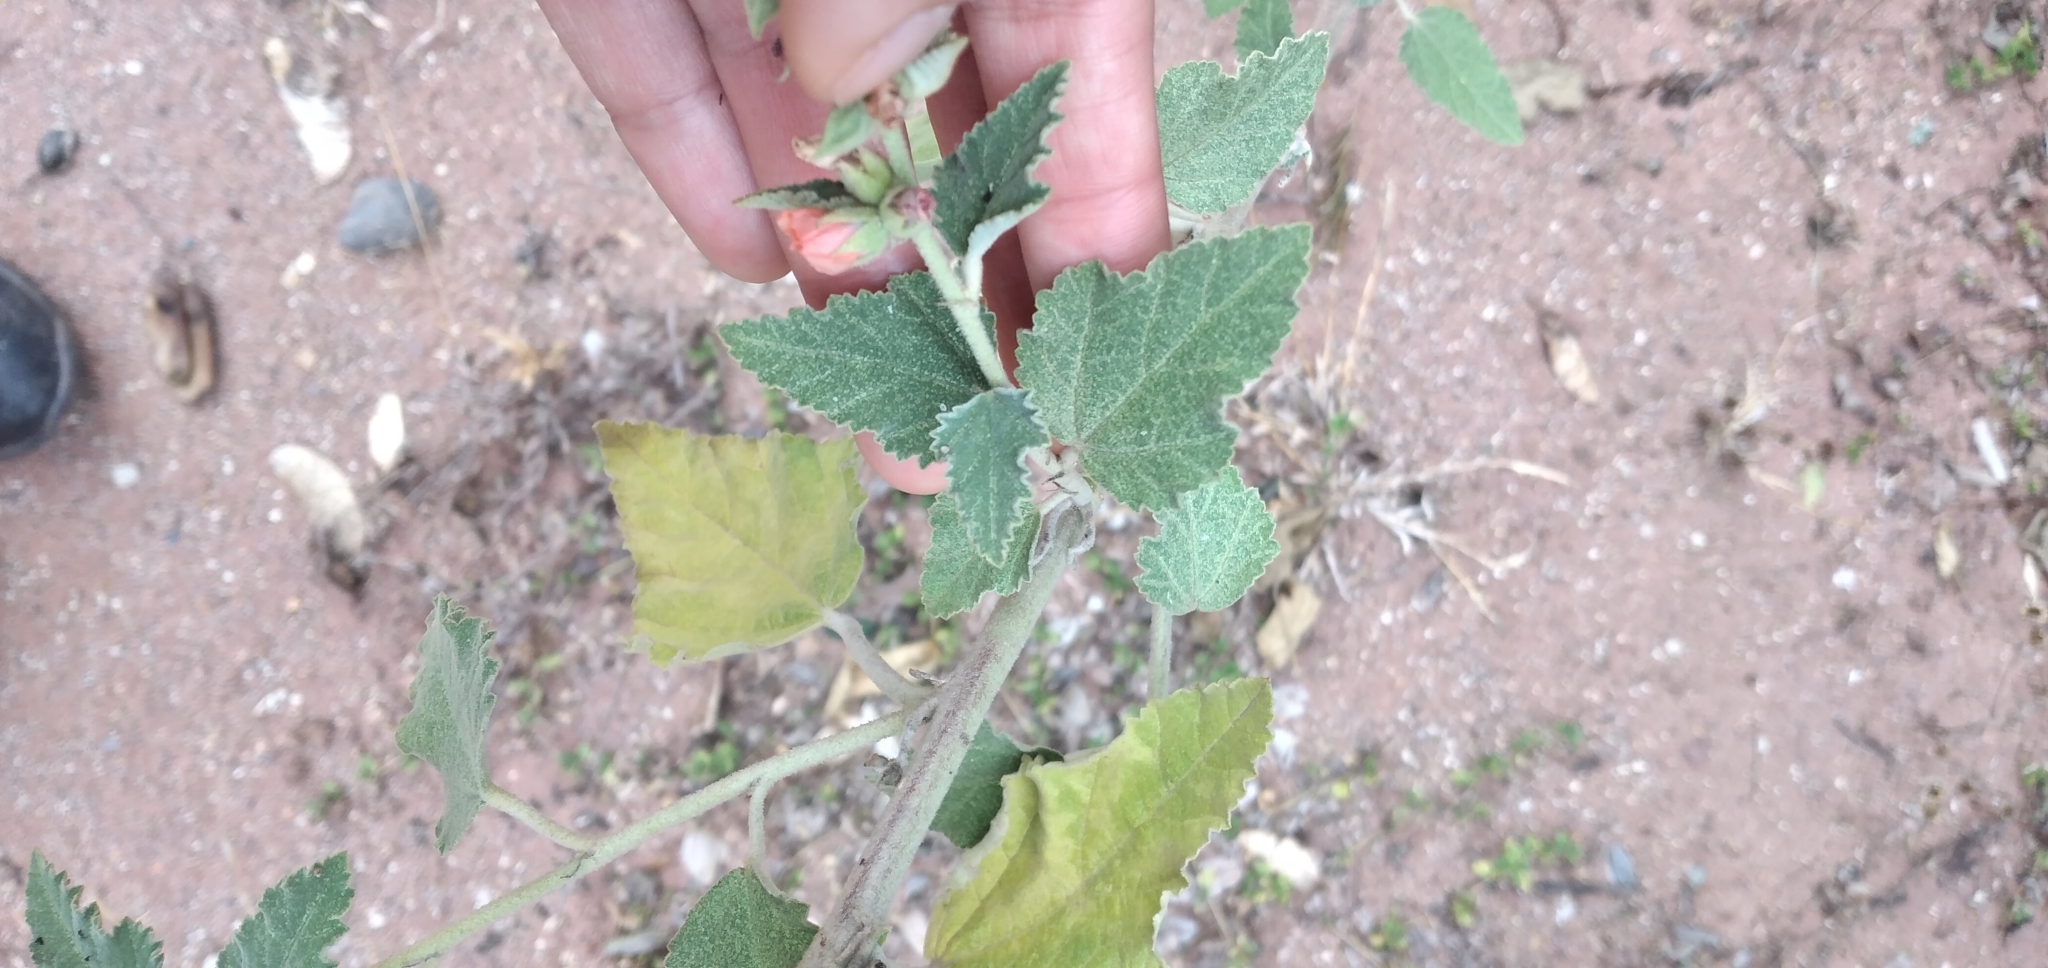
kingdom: Plantae
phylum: Tracheophyta
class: Magnoliopsida
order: Malvales
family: Malvaceae
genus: Sphaeralcea
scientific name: Sphaeralcea bonariensis
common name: Latin globemallow
